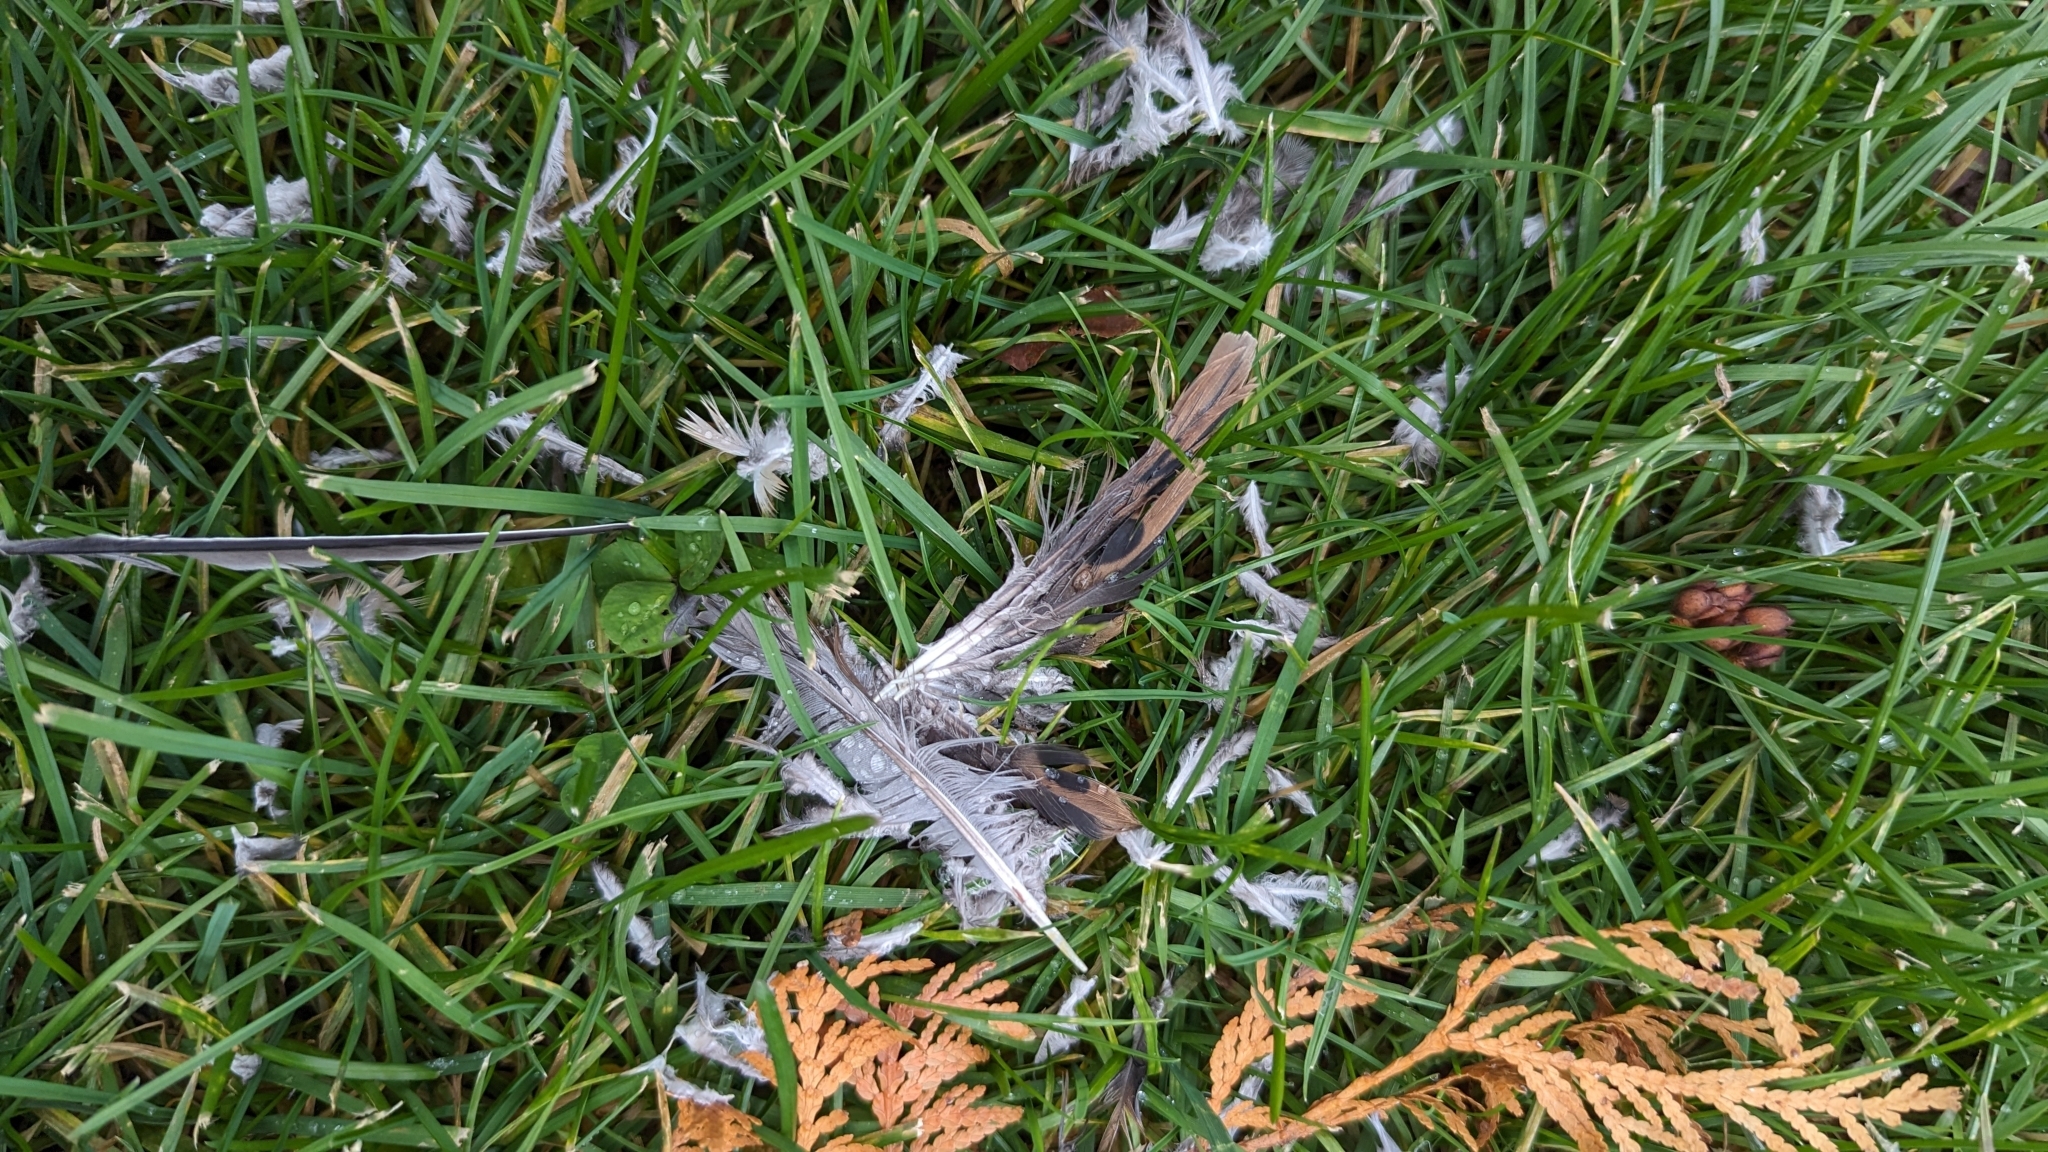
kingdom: Animalia
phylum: Chordata
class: Aves
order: Columbiformes
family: Columbidae
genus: Zenaida
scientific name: Zenaida macroura
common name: Mourning dove
